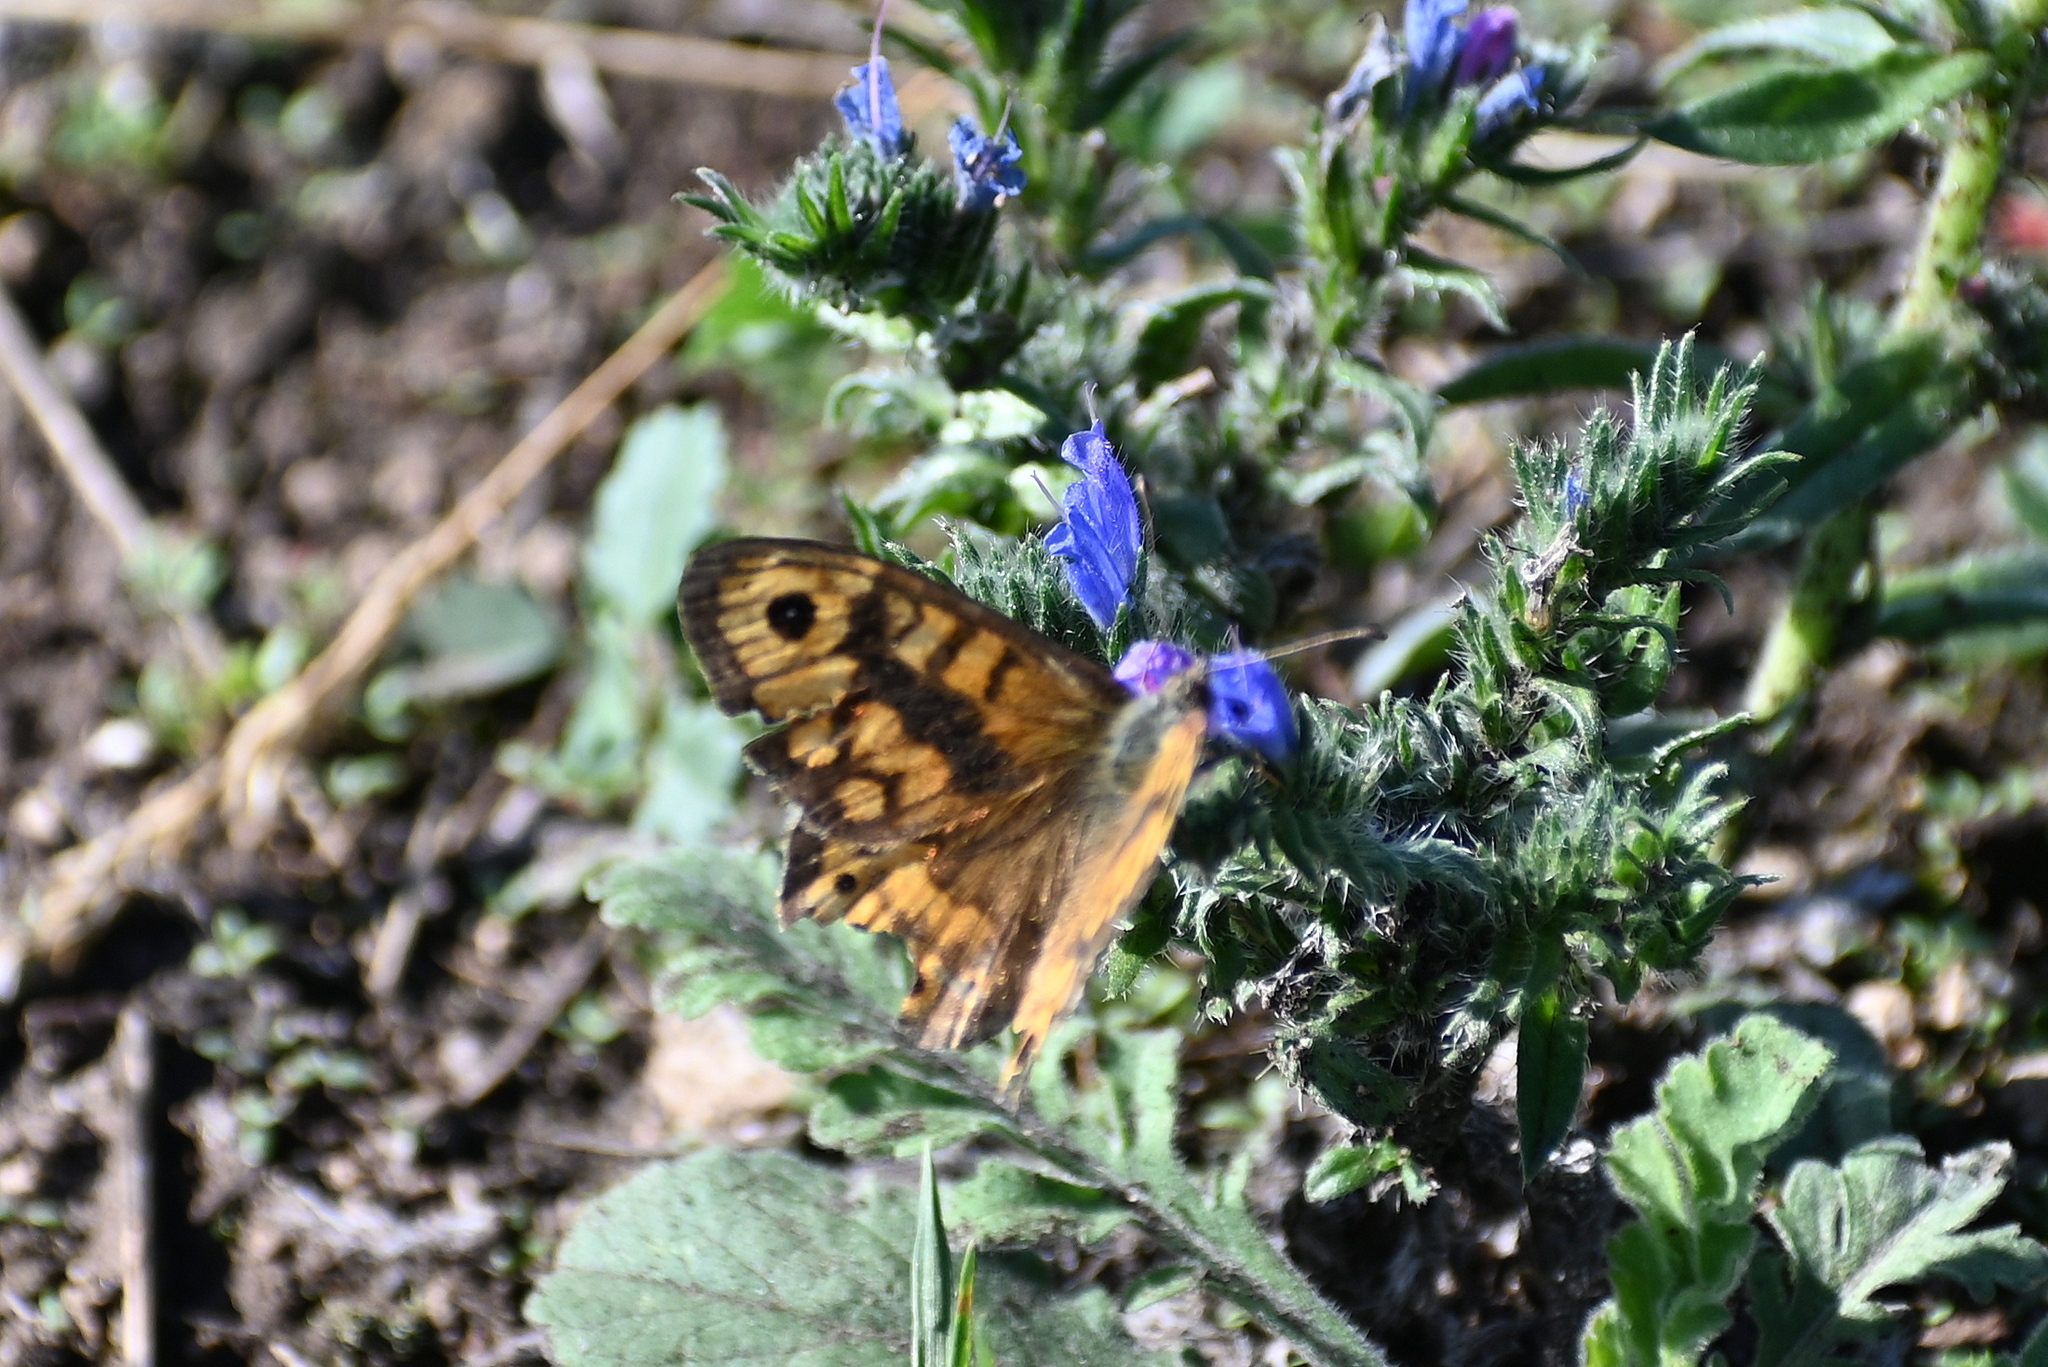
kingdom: Animalia
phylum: Arthropoda
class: Insecta
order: Lepidoptera
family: Nymphalidae
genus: Pararge
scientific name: Pararge Lasiommata megera
